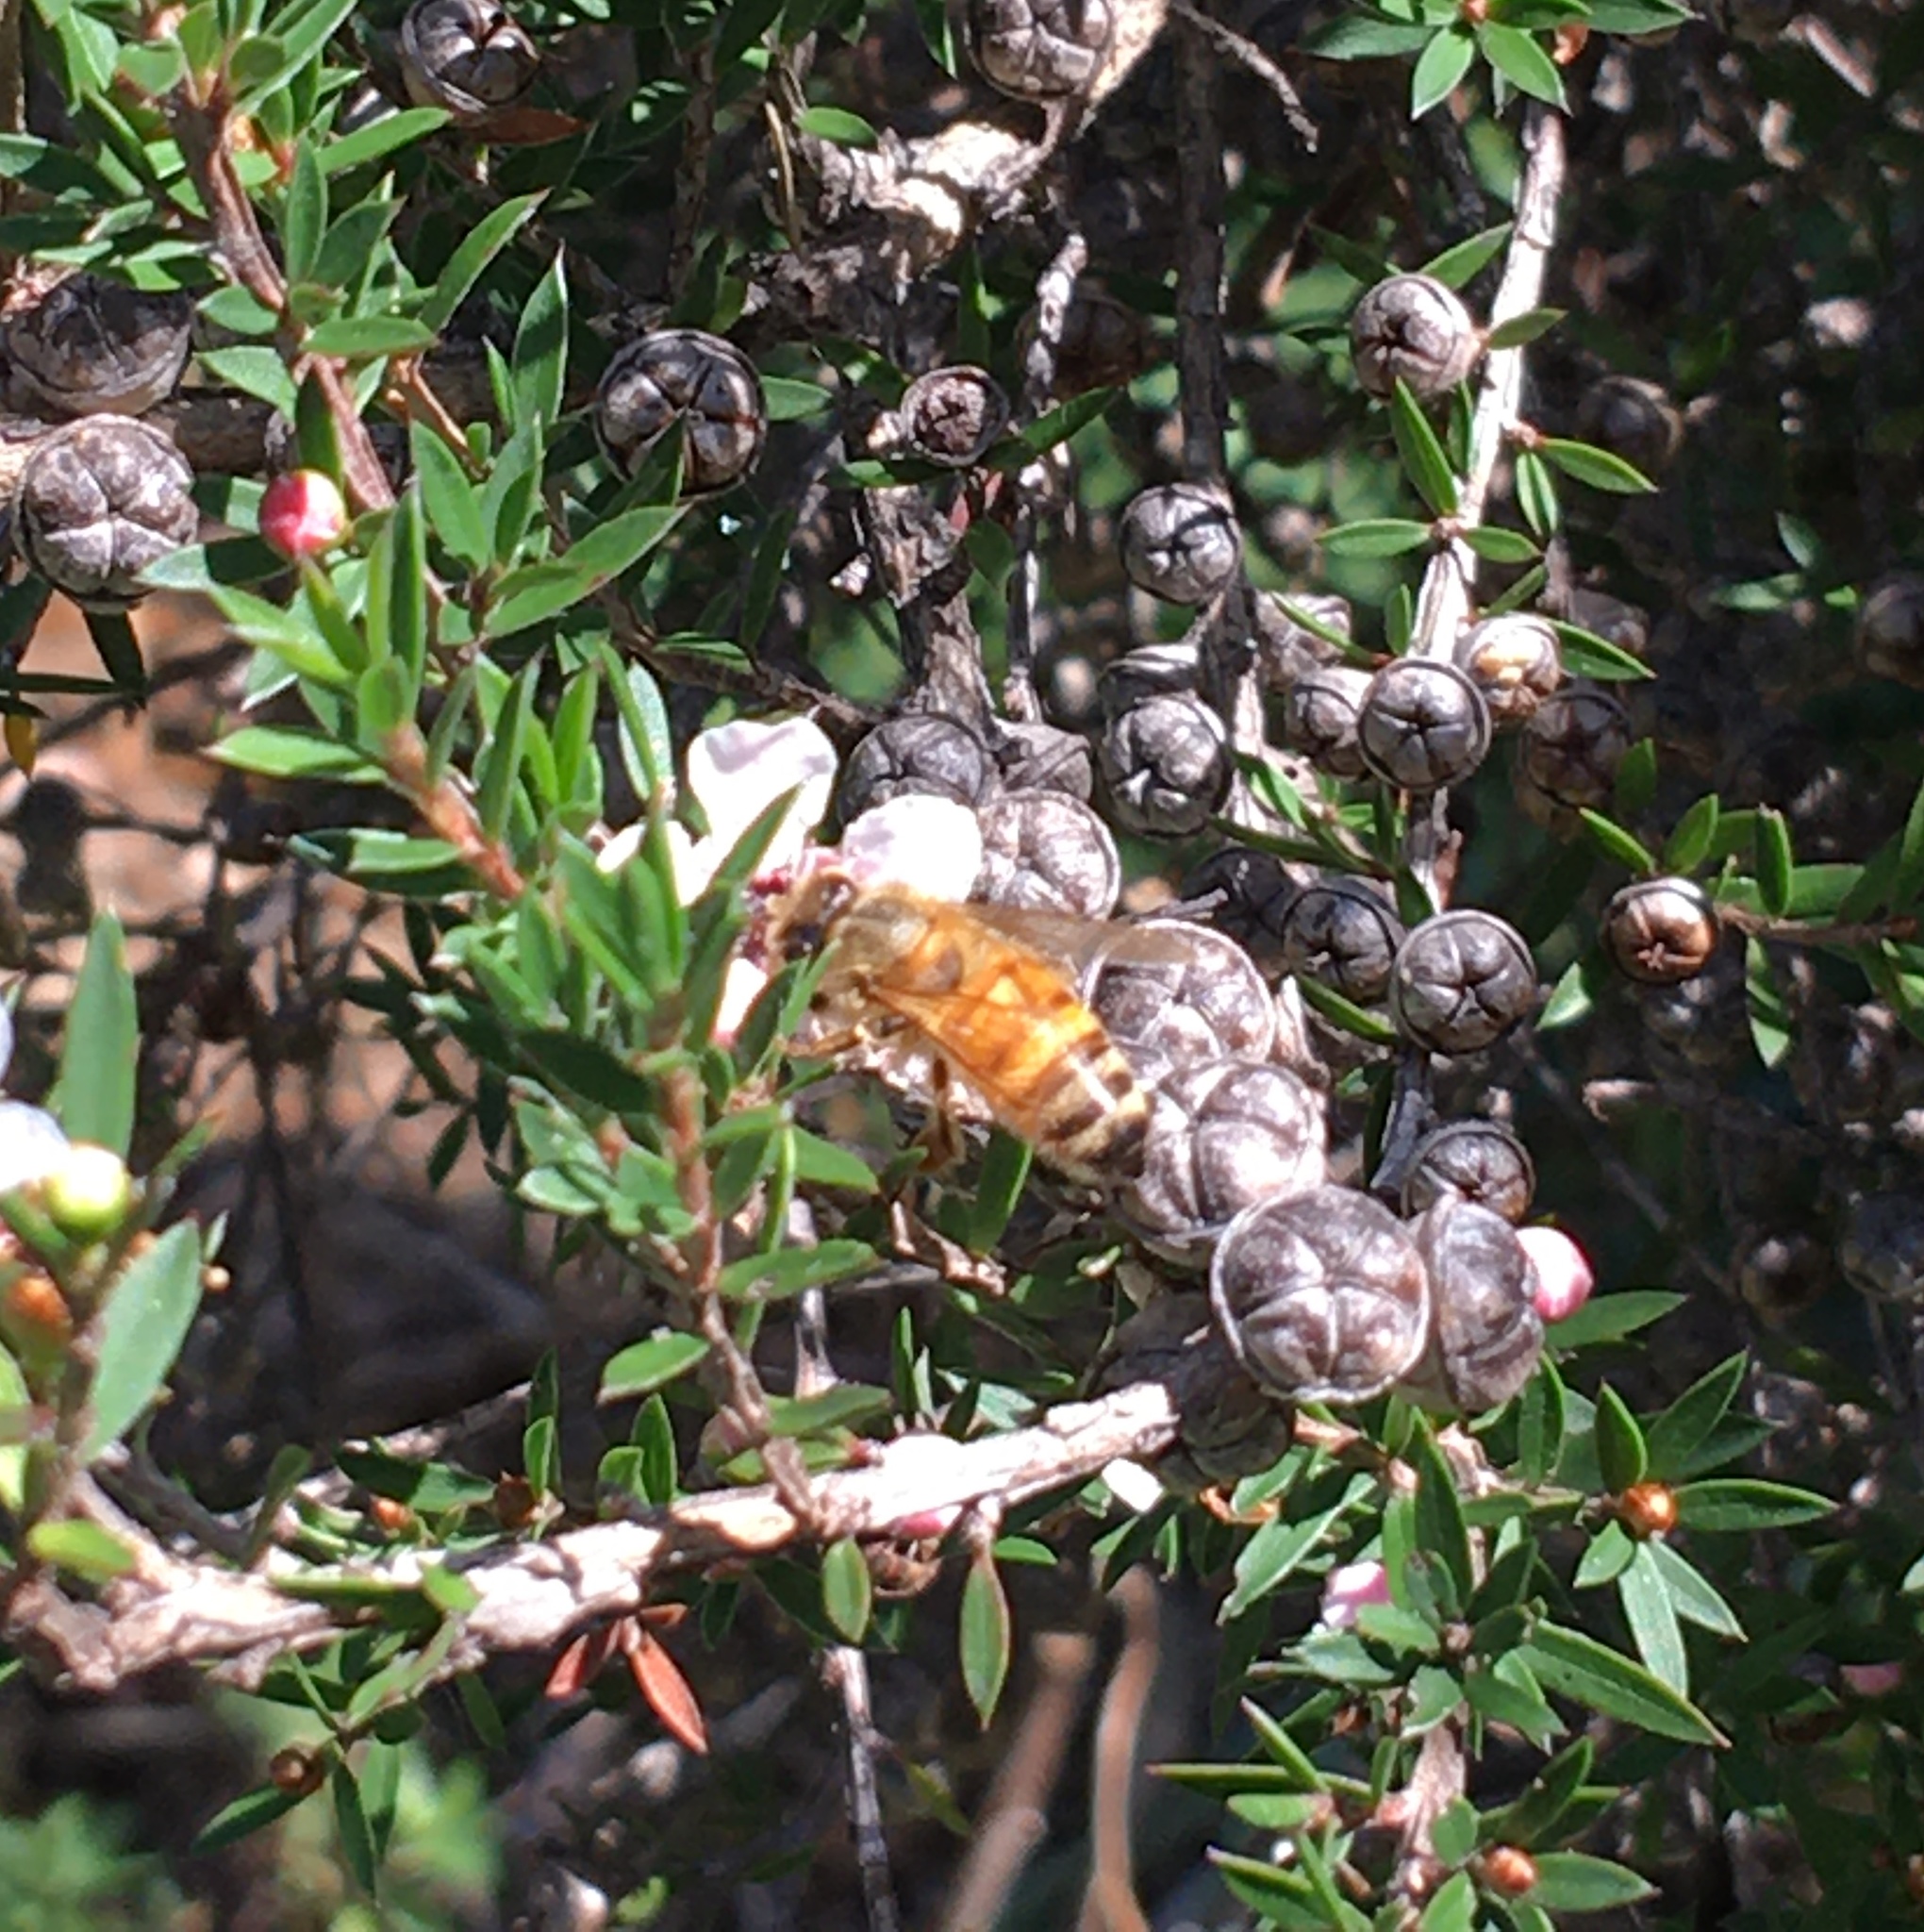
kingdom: Animalia
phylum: Arthropoda
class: Insecta
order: Hymenoptera
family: Apidae
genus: Apis
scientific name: Apis mellifera
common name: Honey bee
